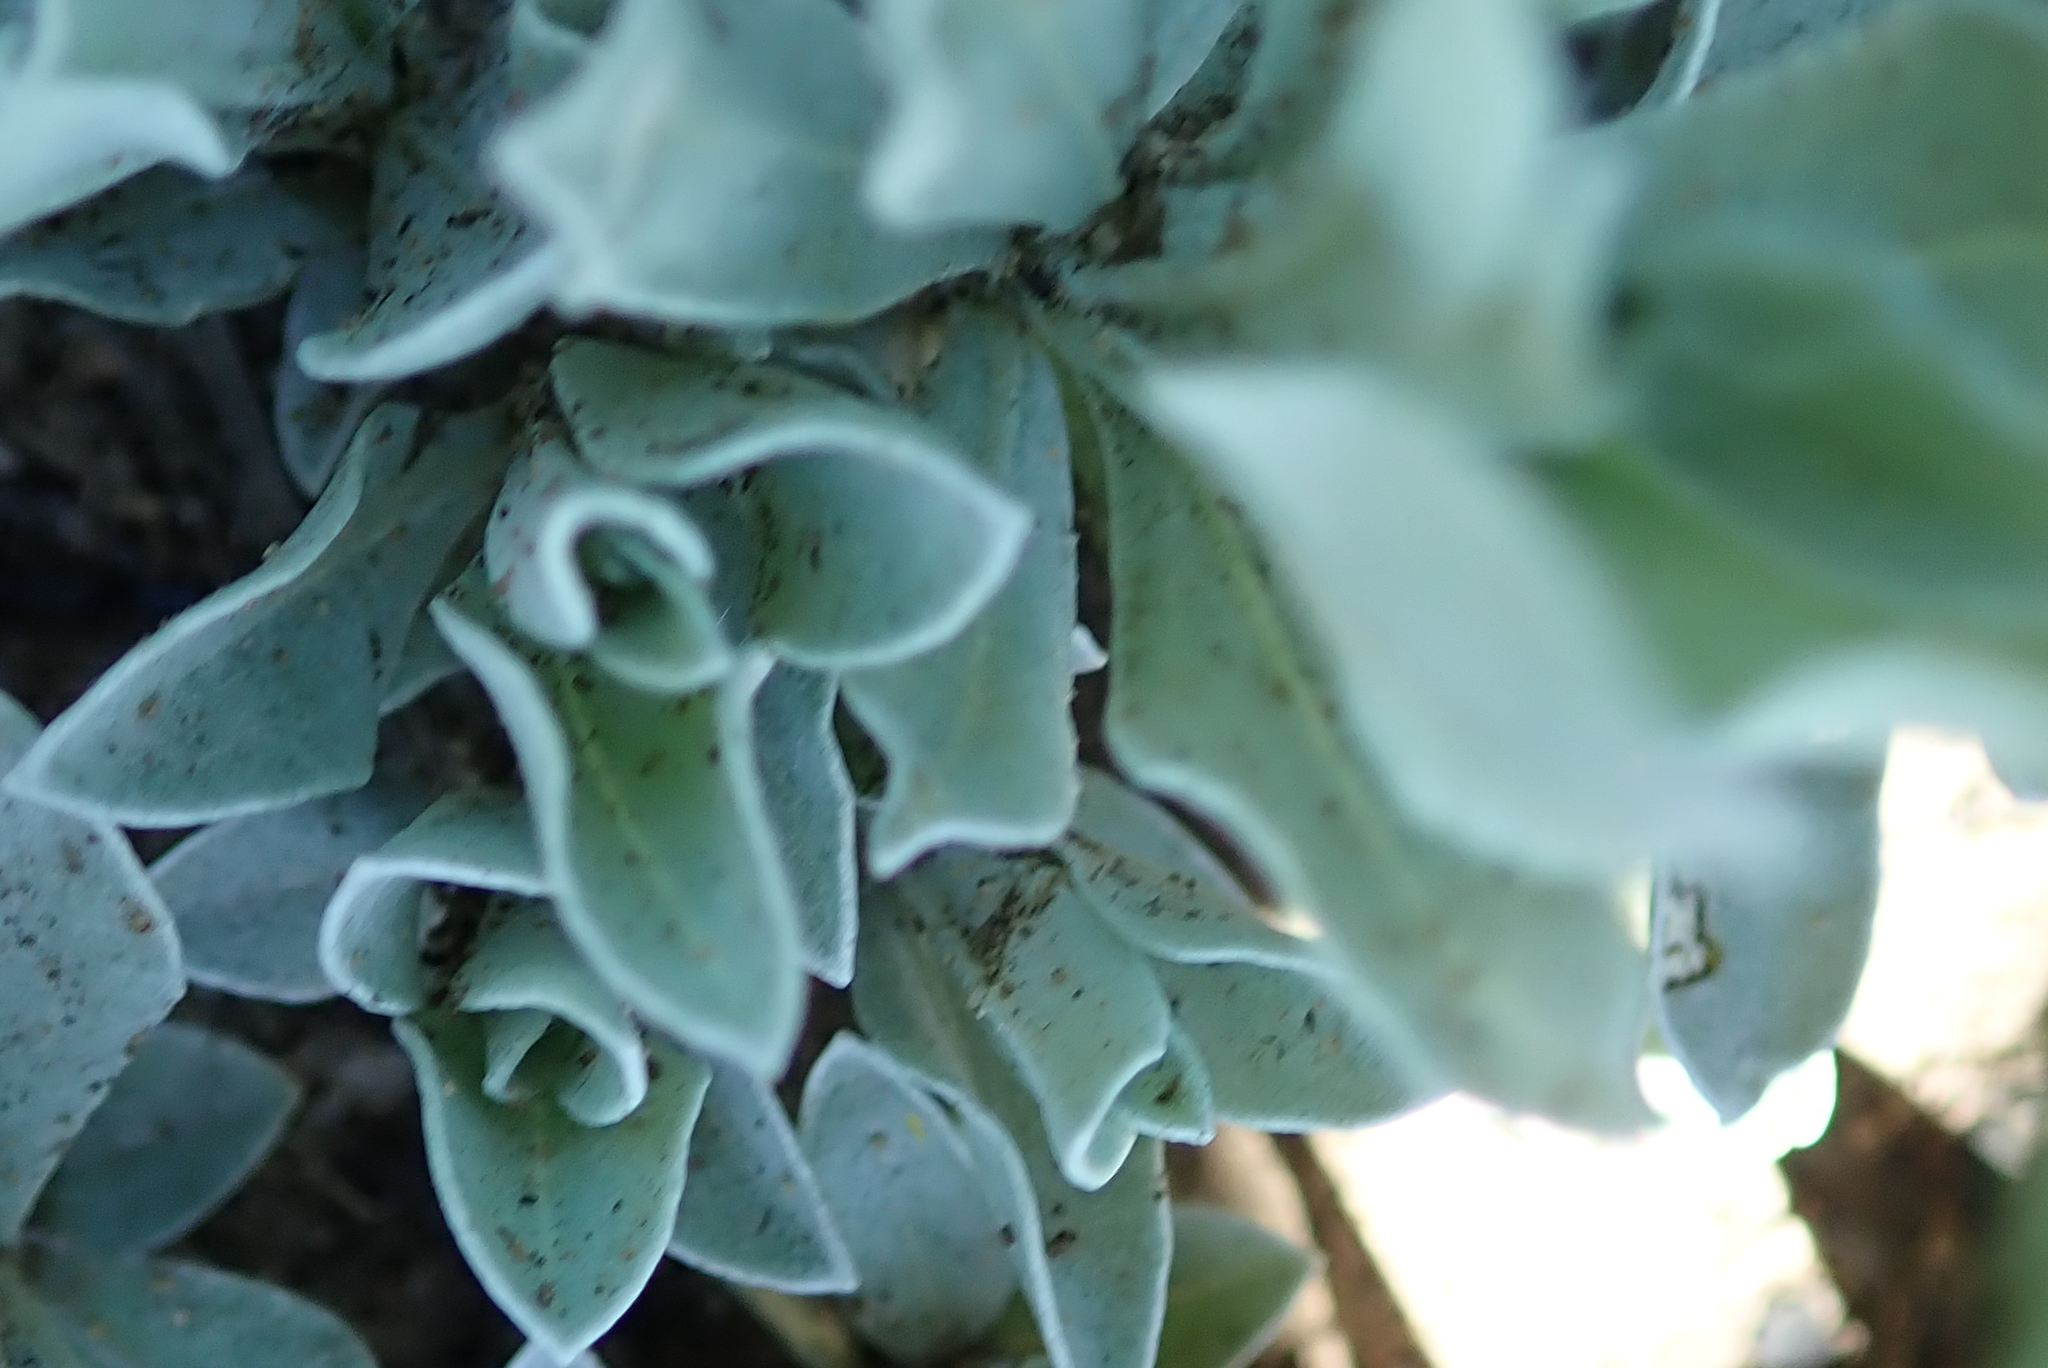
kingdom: Plantae
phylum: Tracheophyta
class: Magnoliopsida
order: Fabales
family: Polygalaceae
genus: Polygala
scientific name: Polygala amatymbica
